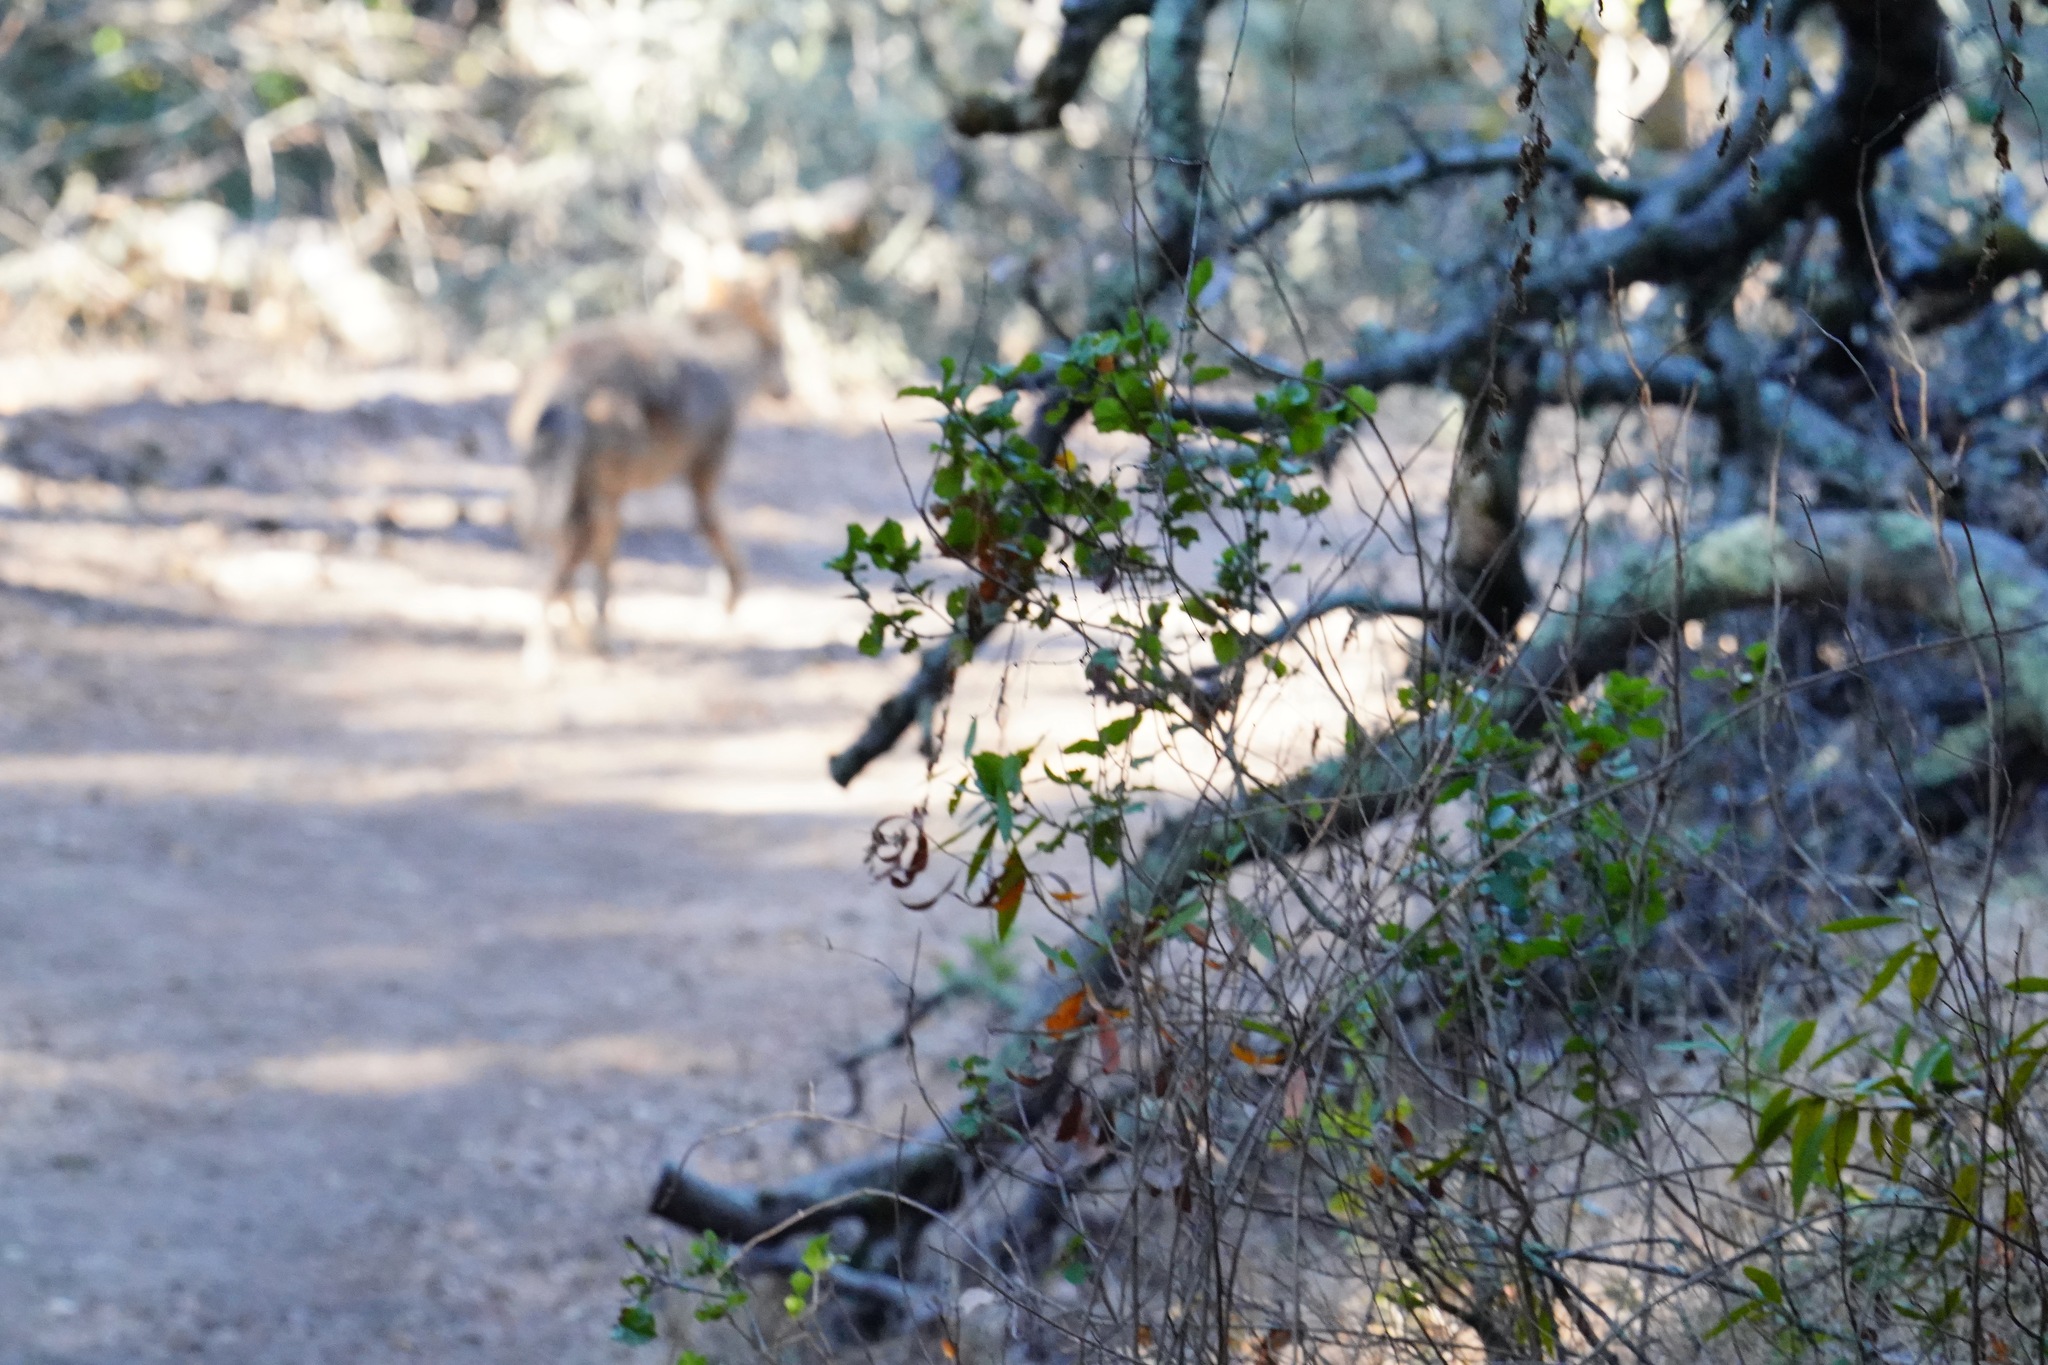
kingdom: Animalia
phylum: Chordata
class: Mammalia
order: Carnivora
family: Canidae
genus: Canis
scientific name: Canis latrans
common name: Coyote
